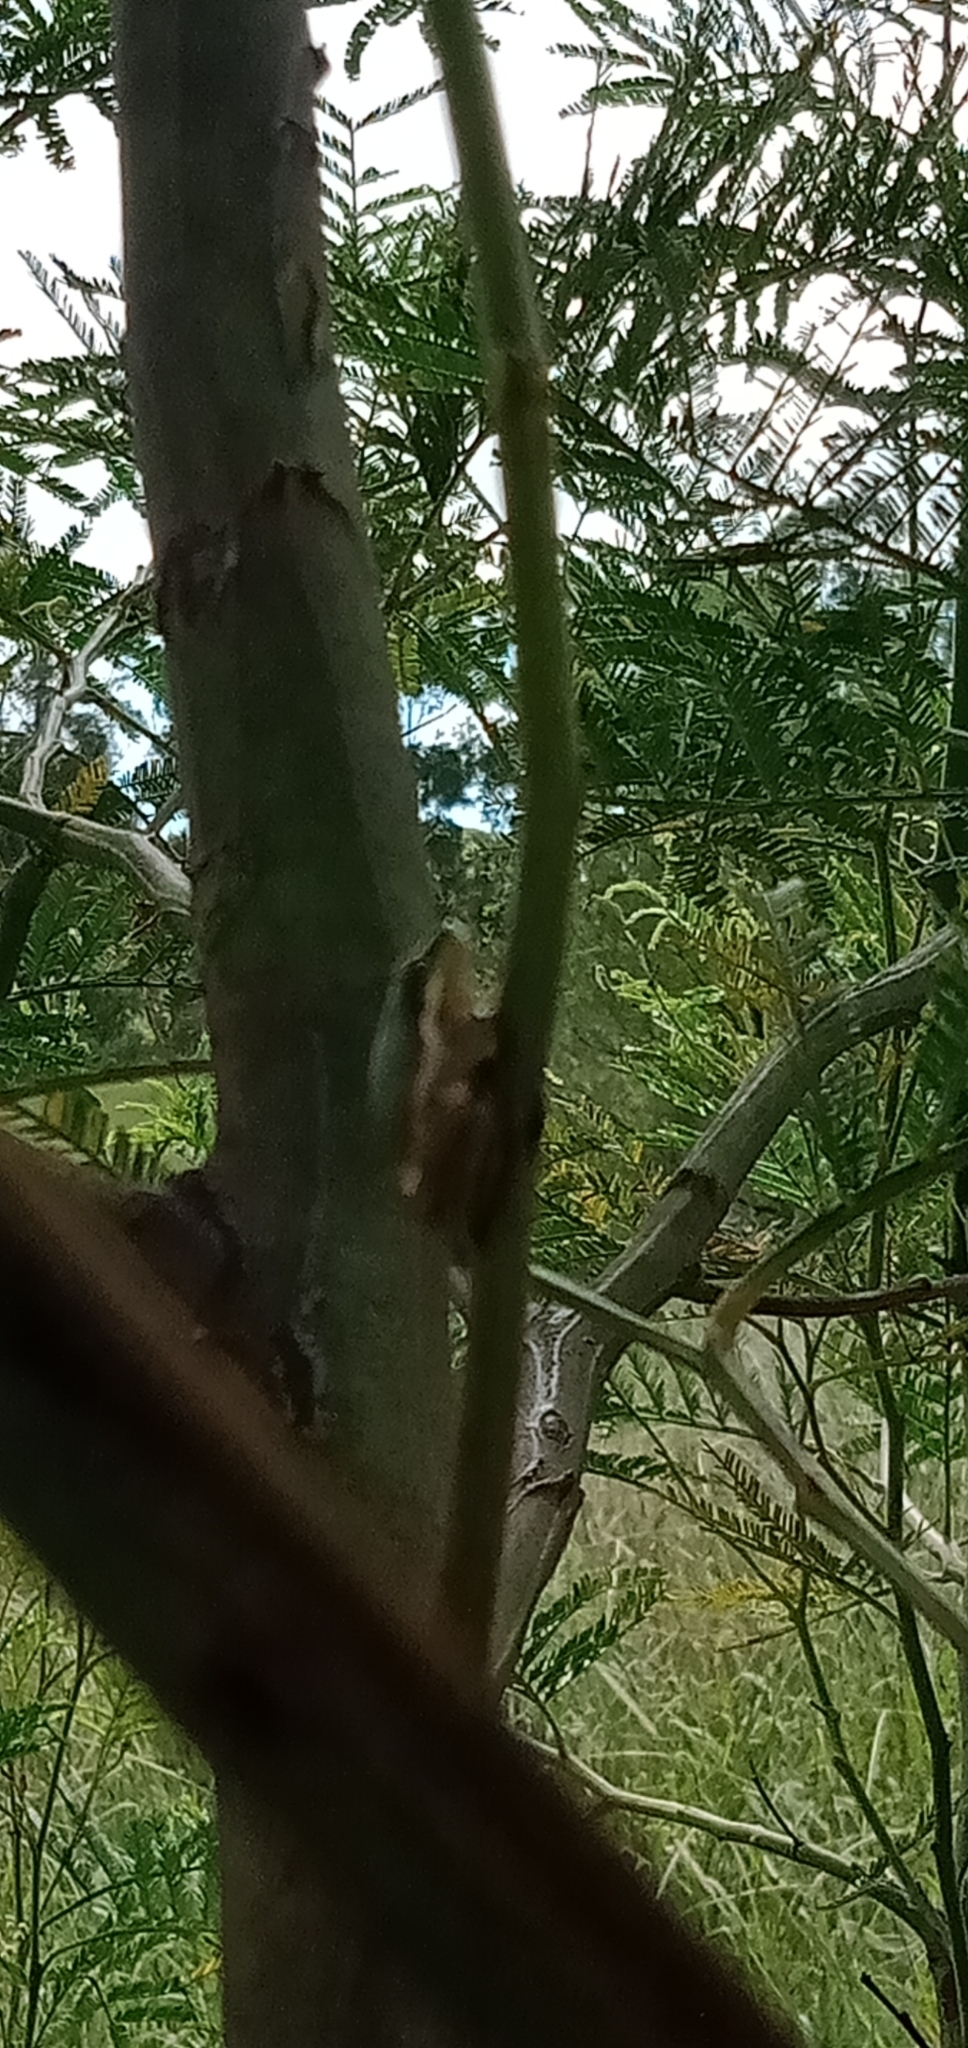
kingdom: Animalia
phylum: Chordata
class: Amphibia
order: Anura
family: Pelodryadidae
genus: Litoria
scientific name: Litoria fallax
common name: Eastern dwarf treefrog
